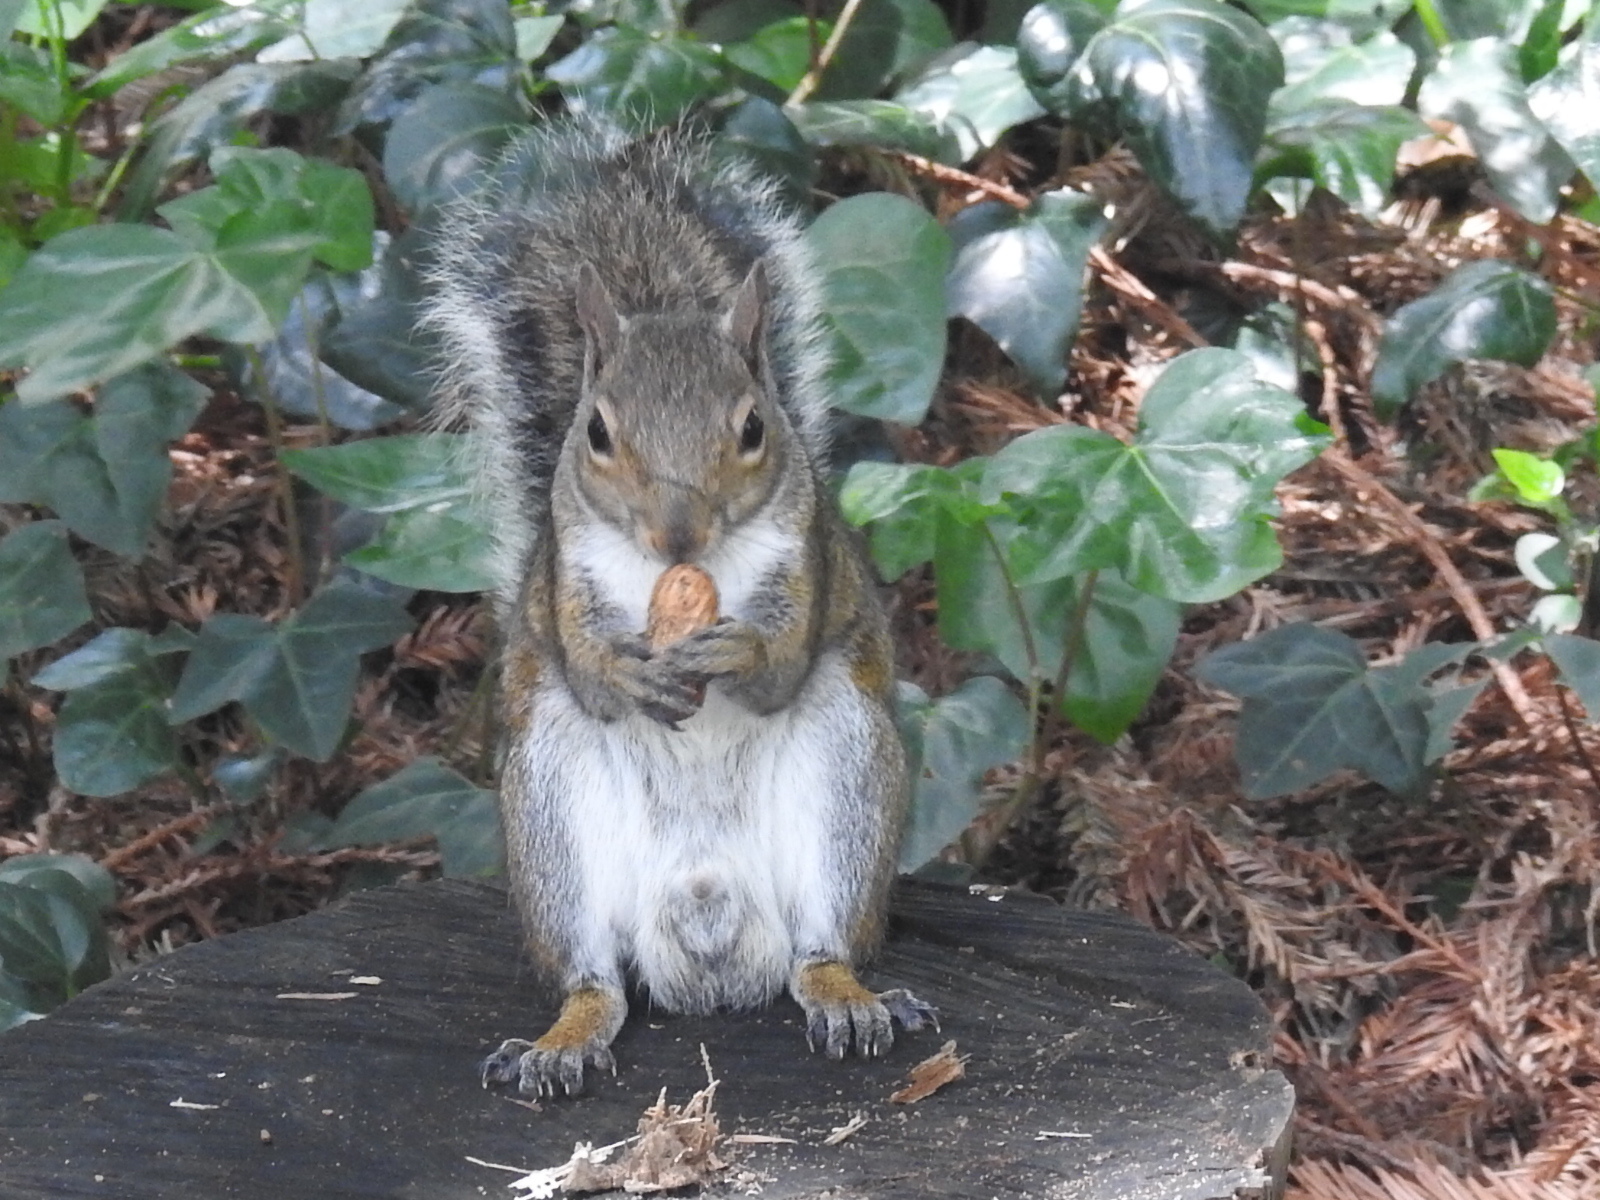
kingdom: Animalia
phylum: Chordata
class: Mammalia
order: Rodentia
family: Sciuridae
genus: Sciurus
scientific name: Sciurus carolinensis
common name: Eastern gray squirrel
